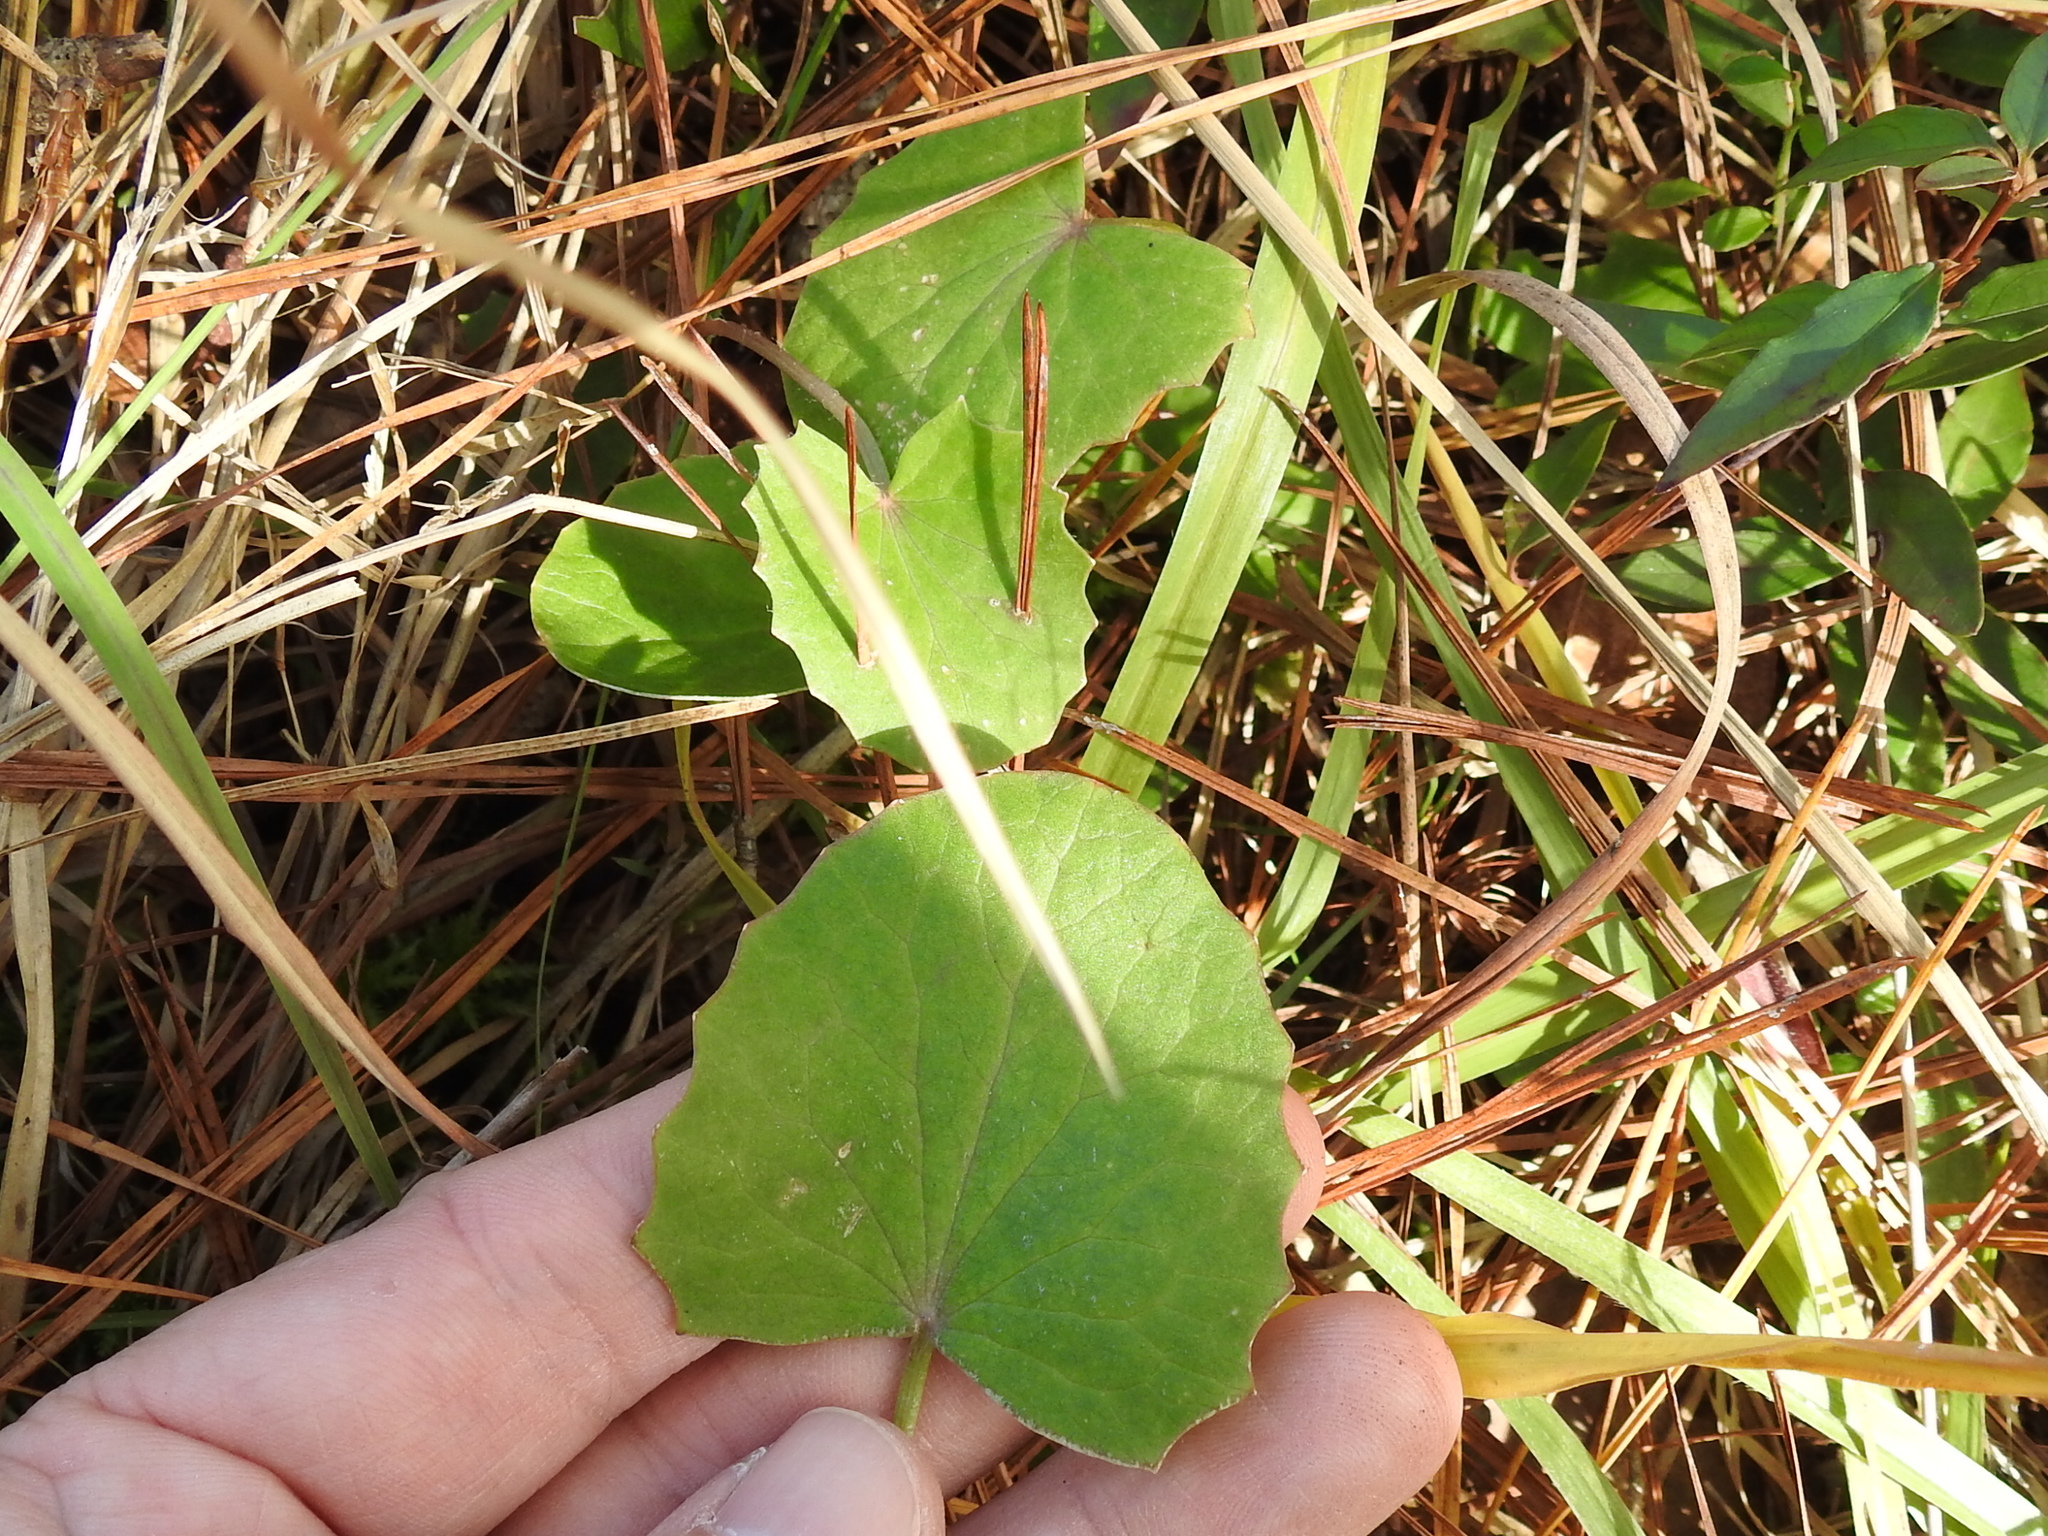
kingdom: Plantae
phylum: Tracheophyta
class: Magnoliopsida
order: Apiales
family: Apiaceae
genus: Centella
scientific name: Centella erecta
